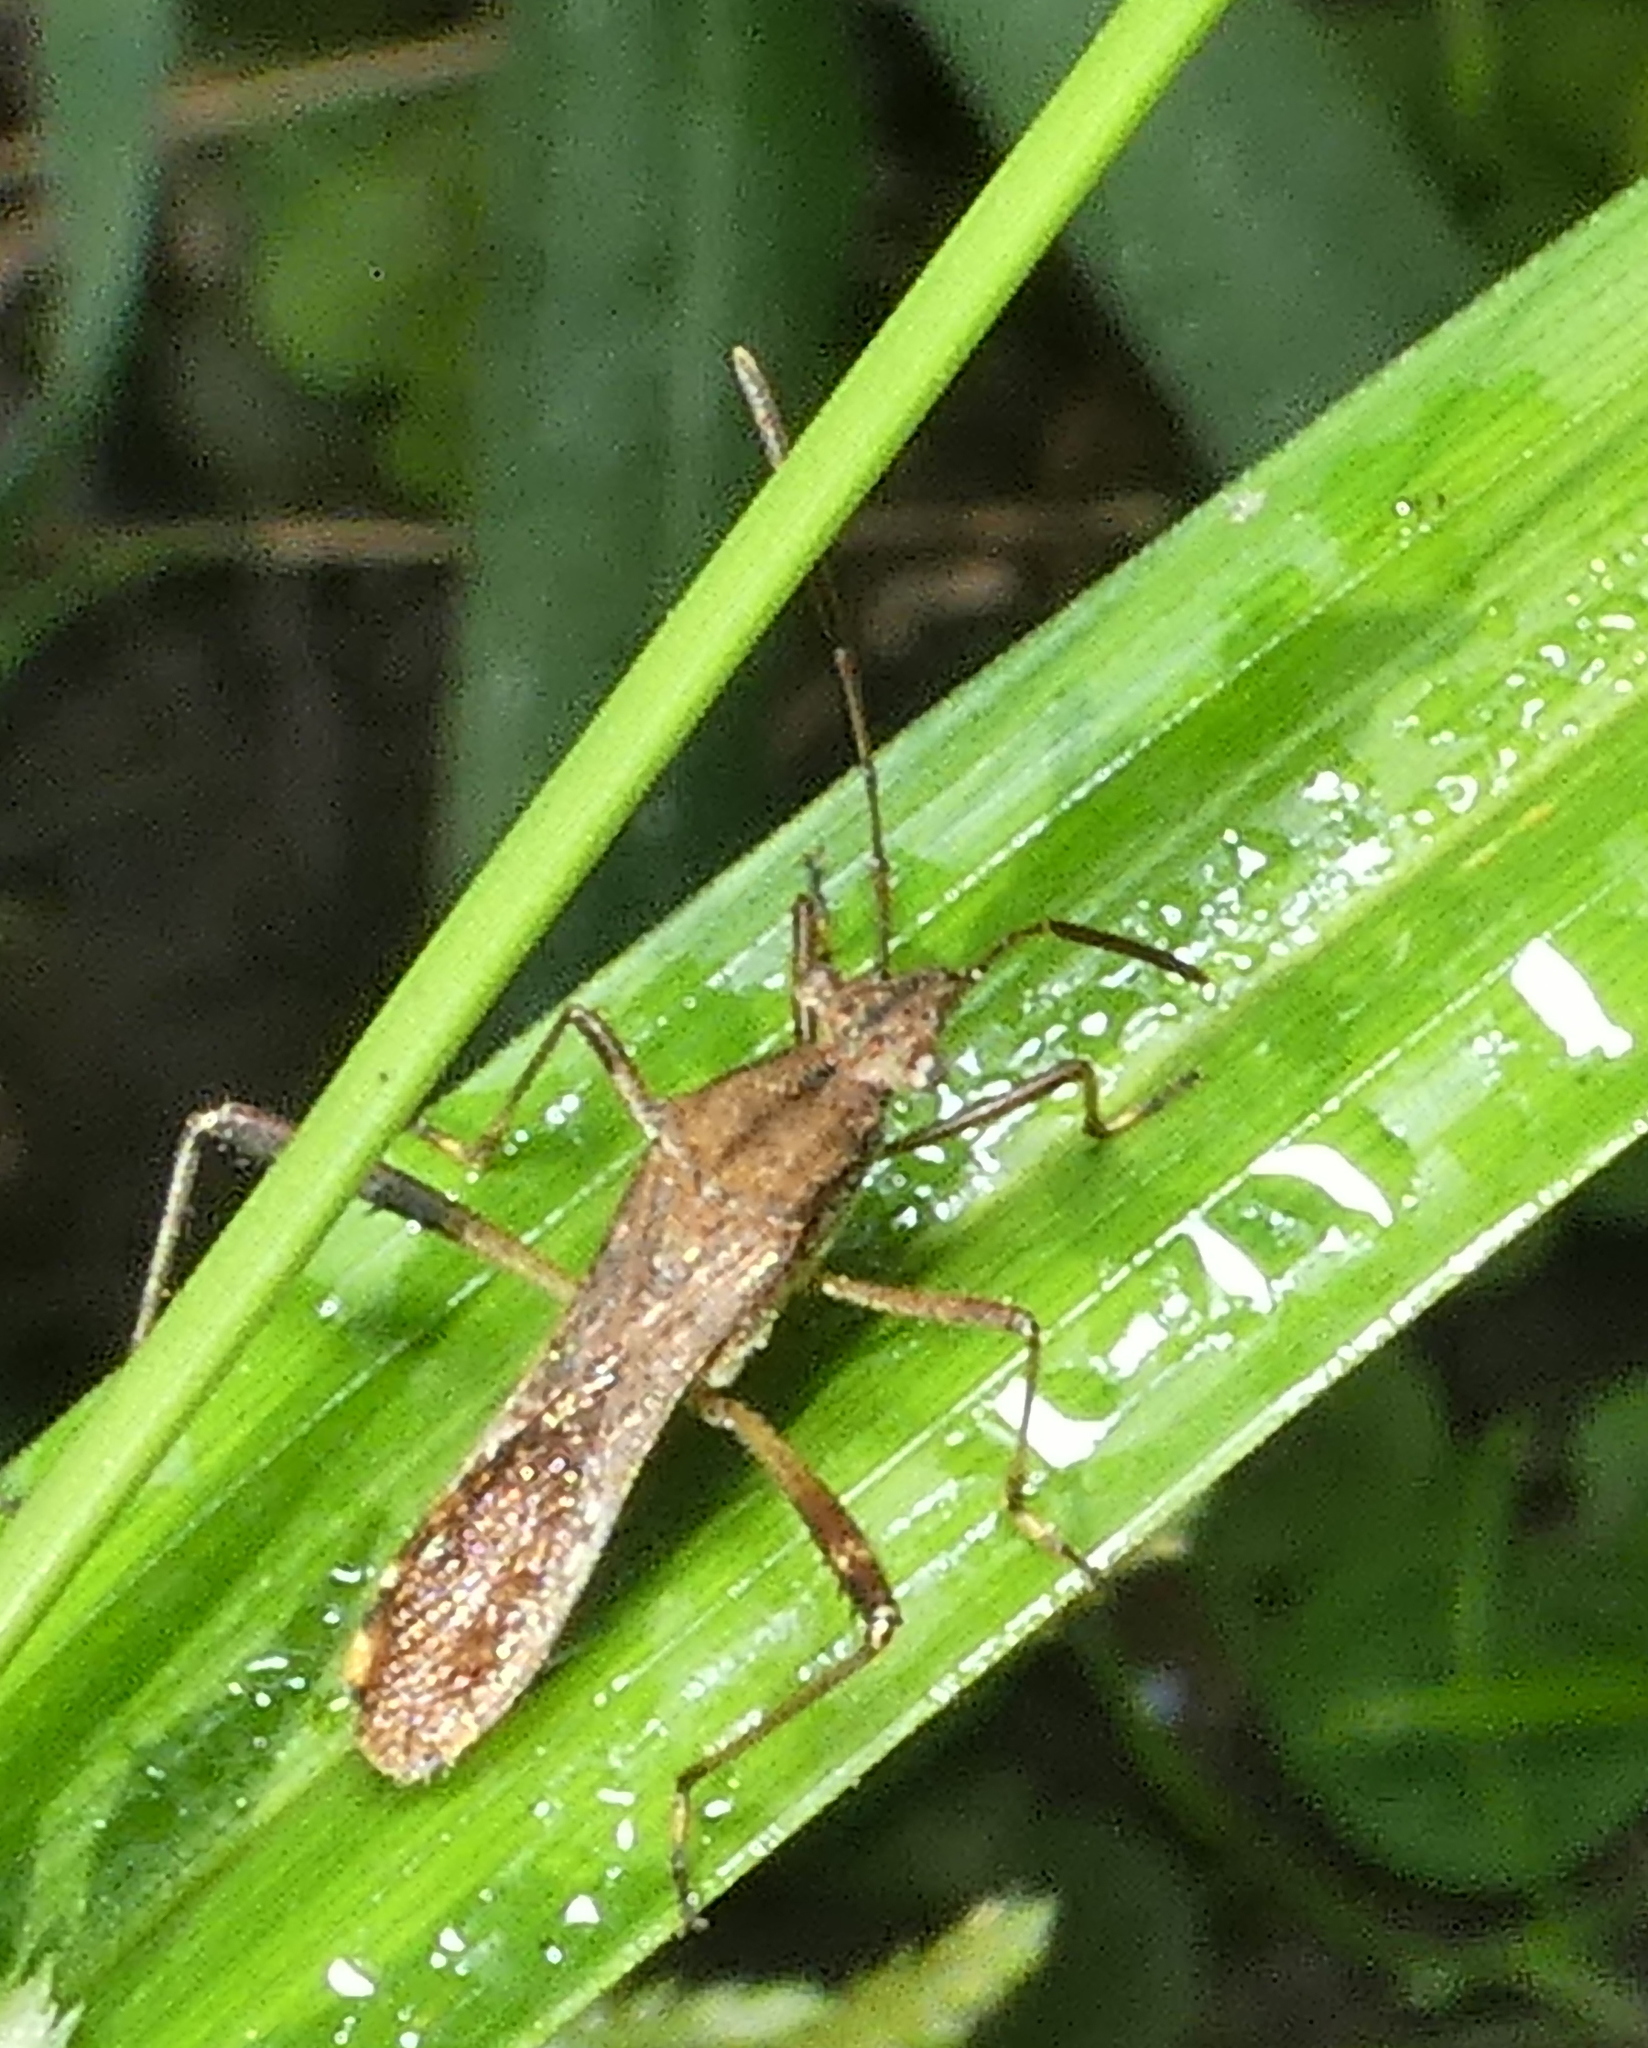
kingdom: Animalia
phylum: Arthropoda
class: Insecta
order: Hemiptera
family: Alydidae
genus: Neomegalotomus
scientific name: Neomegalotomus parvus
